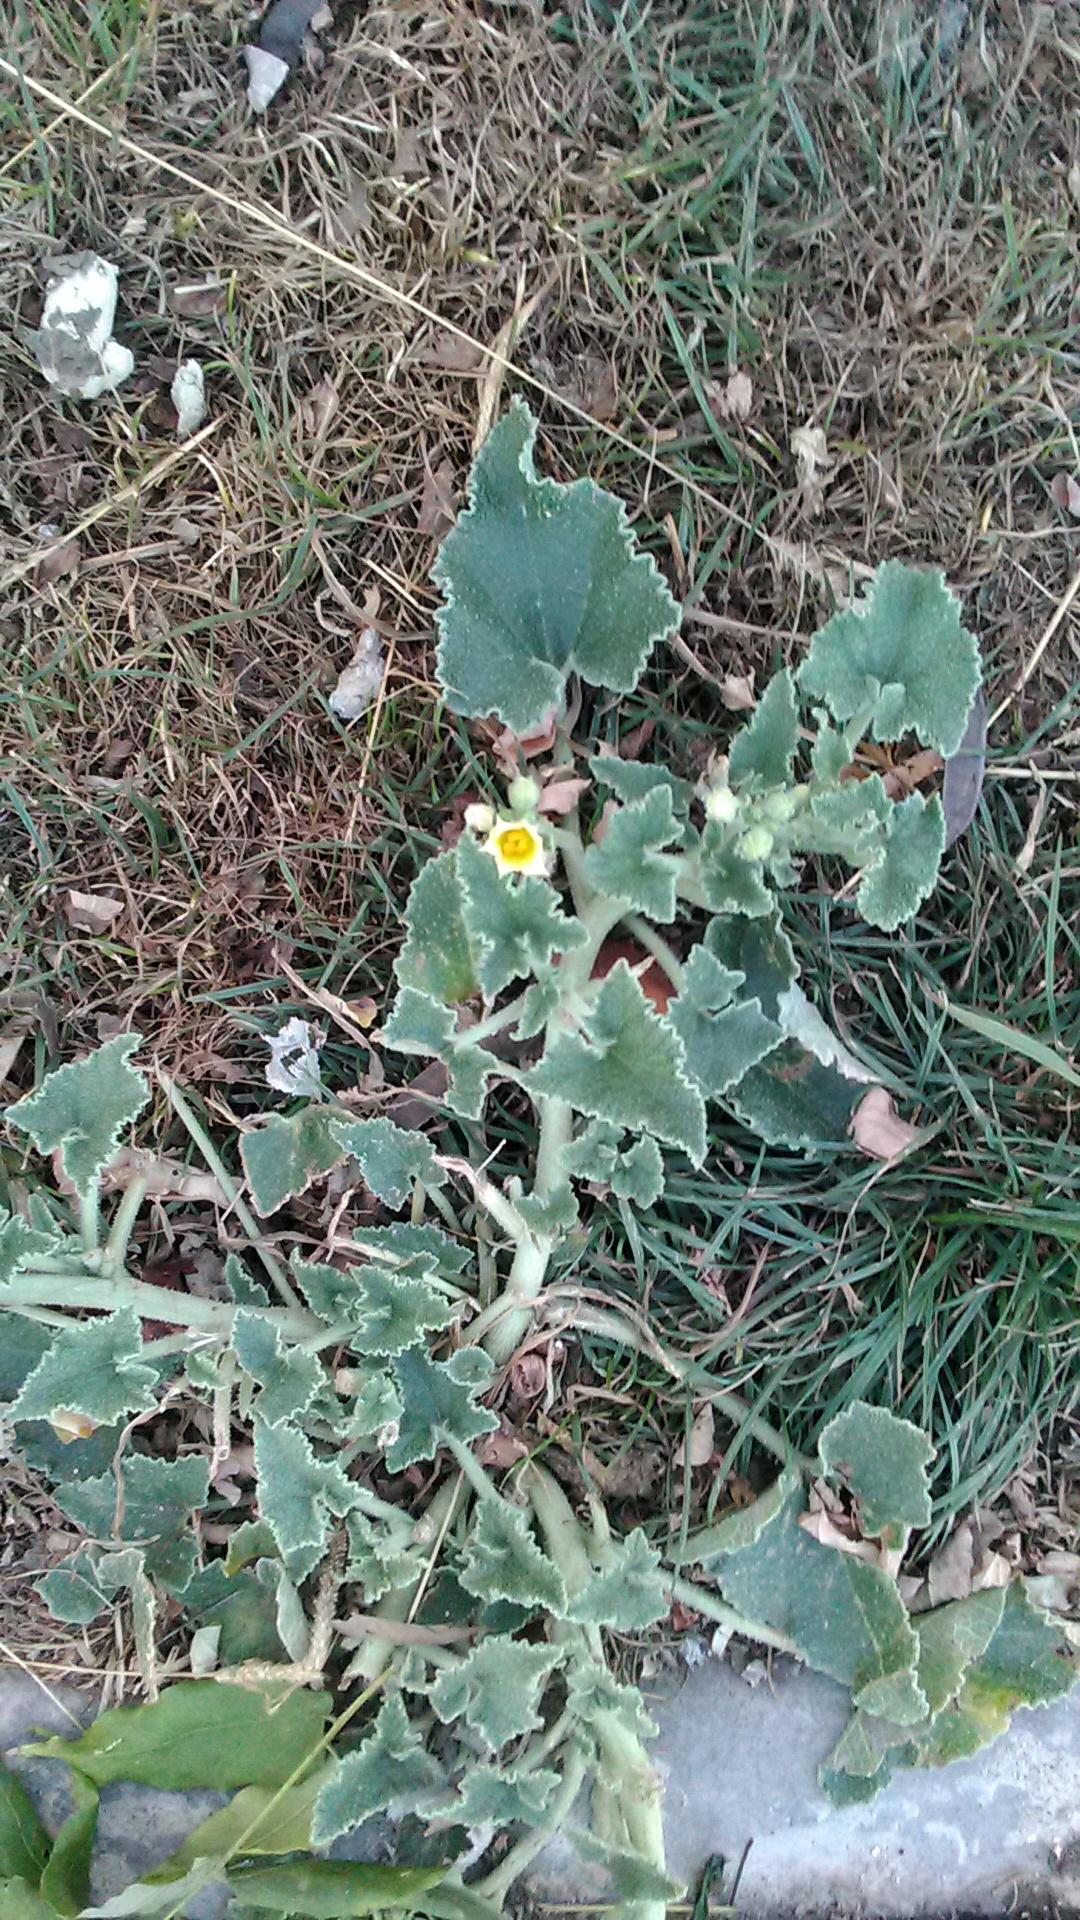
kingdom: Plantae
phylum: Tracheophyta
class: Magnoliopsida
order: Cucurbitales
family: Cucurbitaceae
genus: Ecballium
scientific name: Ecballium elaterium
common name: Squirting cucumber
